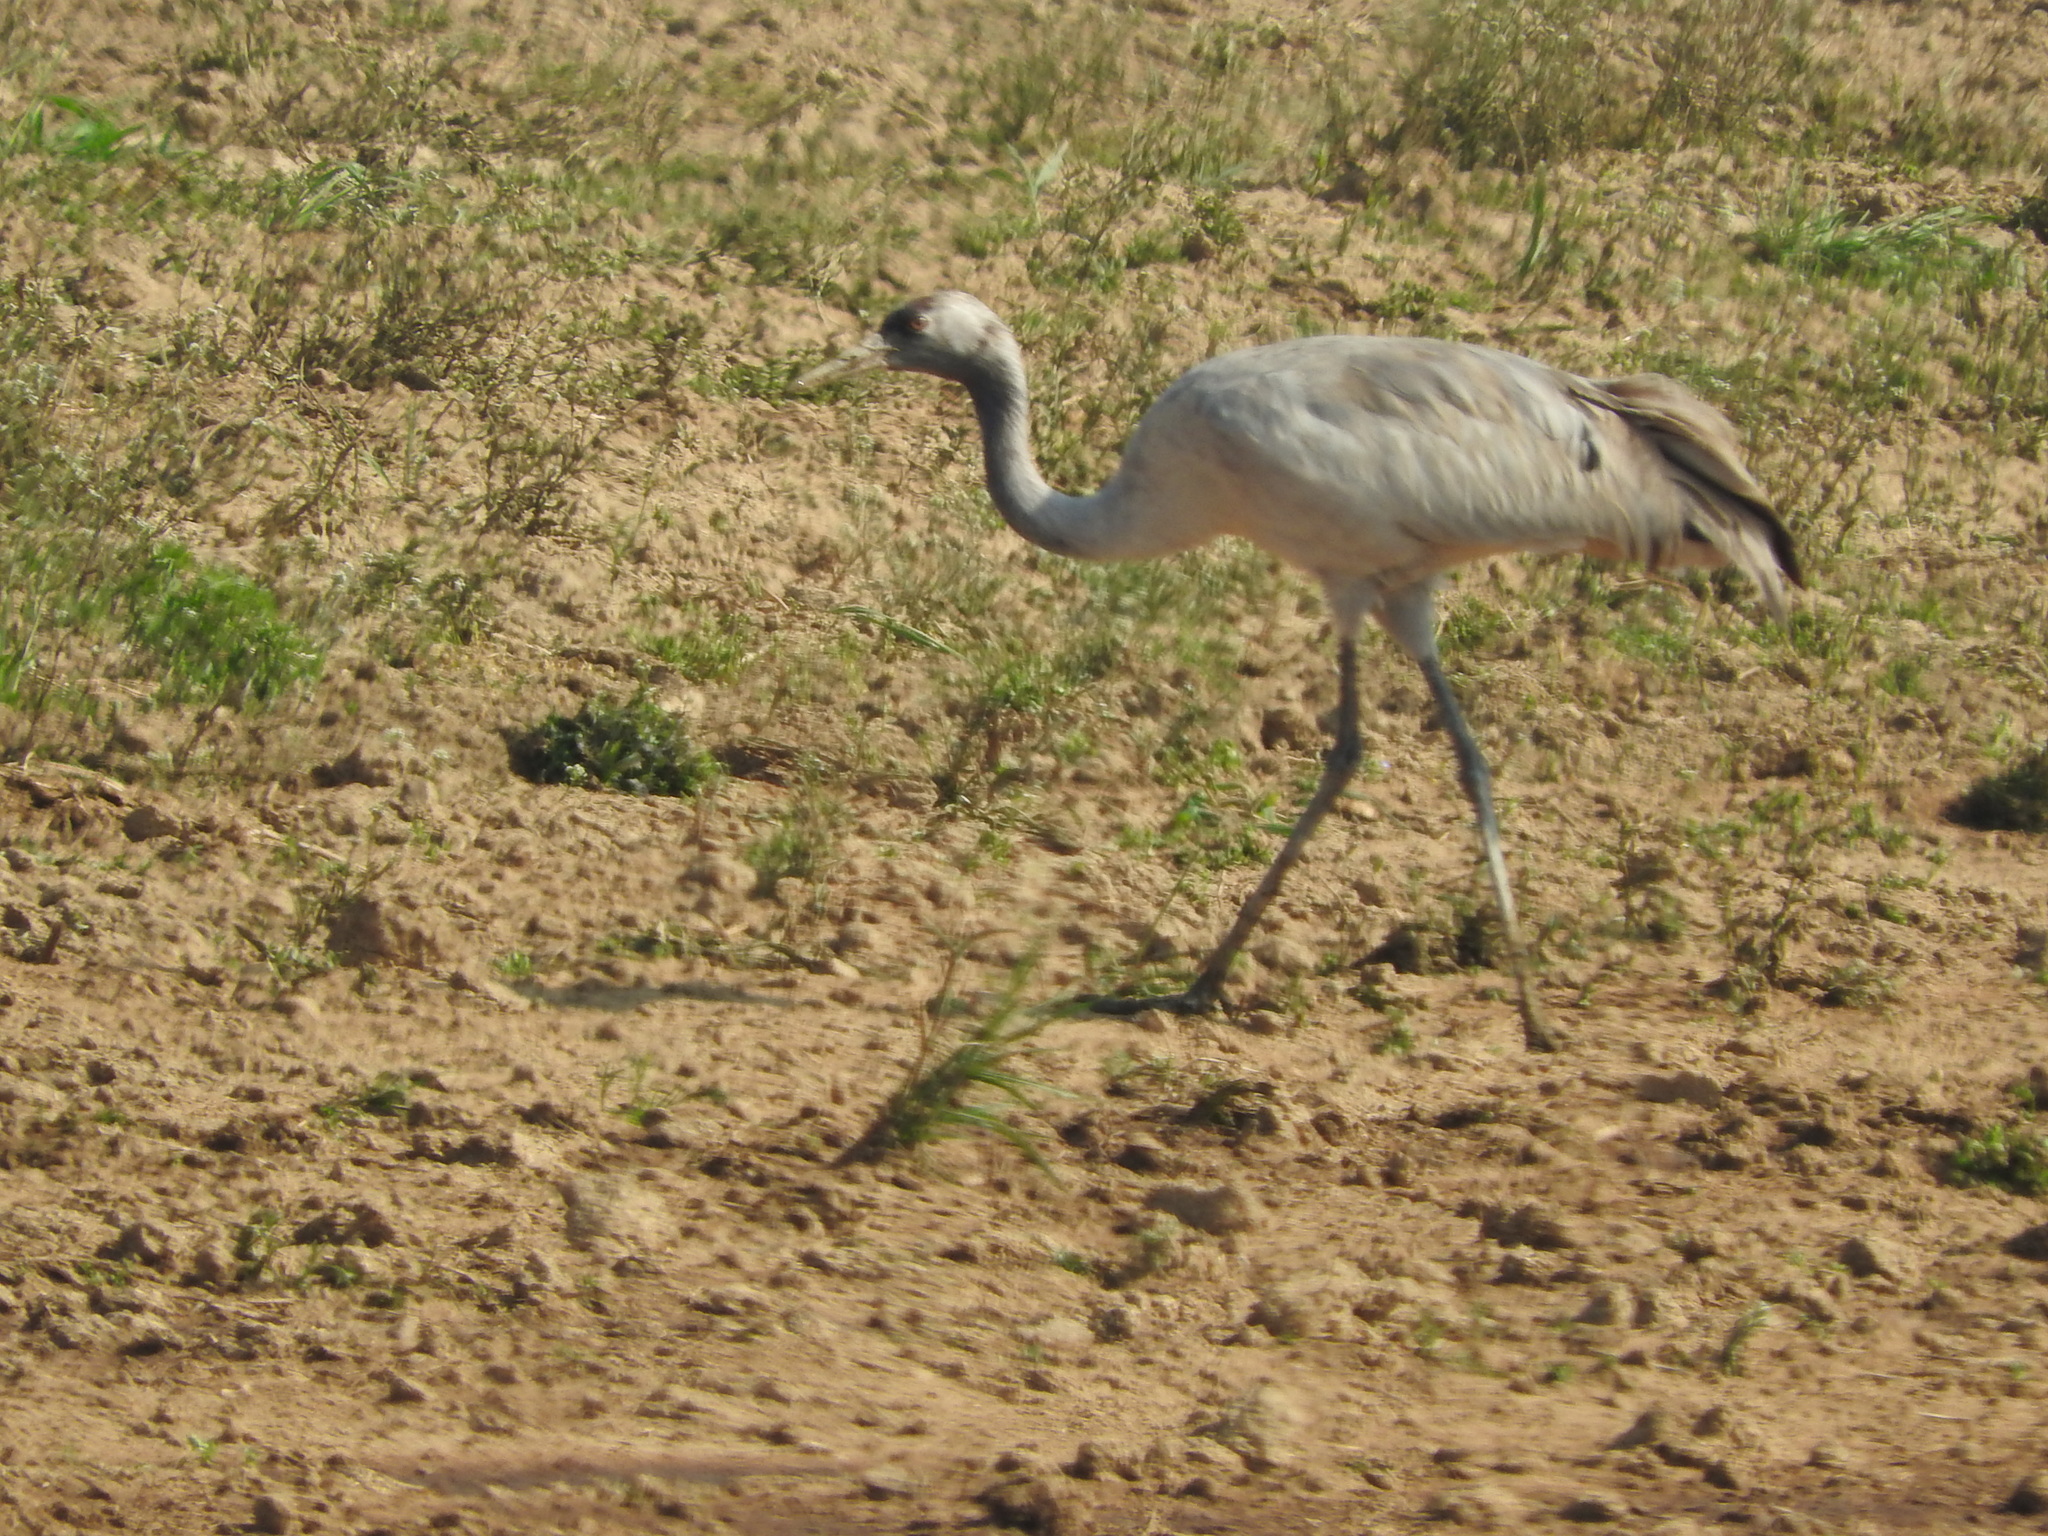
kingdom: Animalia
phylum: Chordata
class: Aves
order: Gruiformes
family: Gruidae
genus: Grus
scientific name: Grus grus
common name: Common crane
